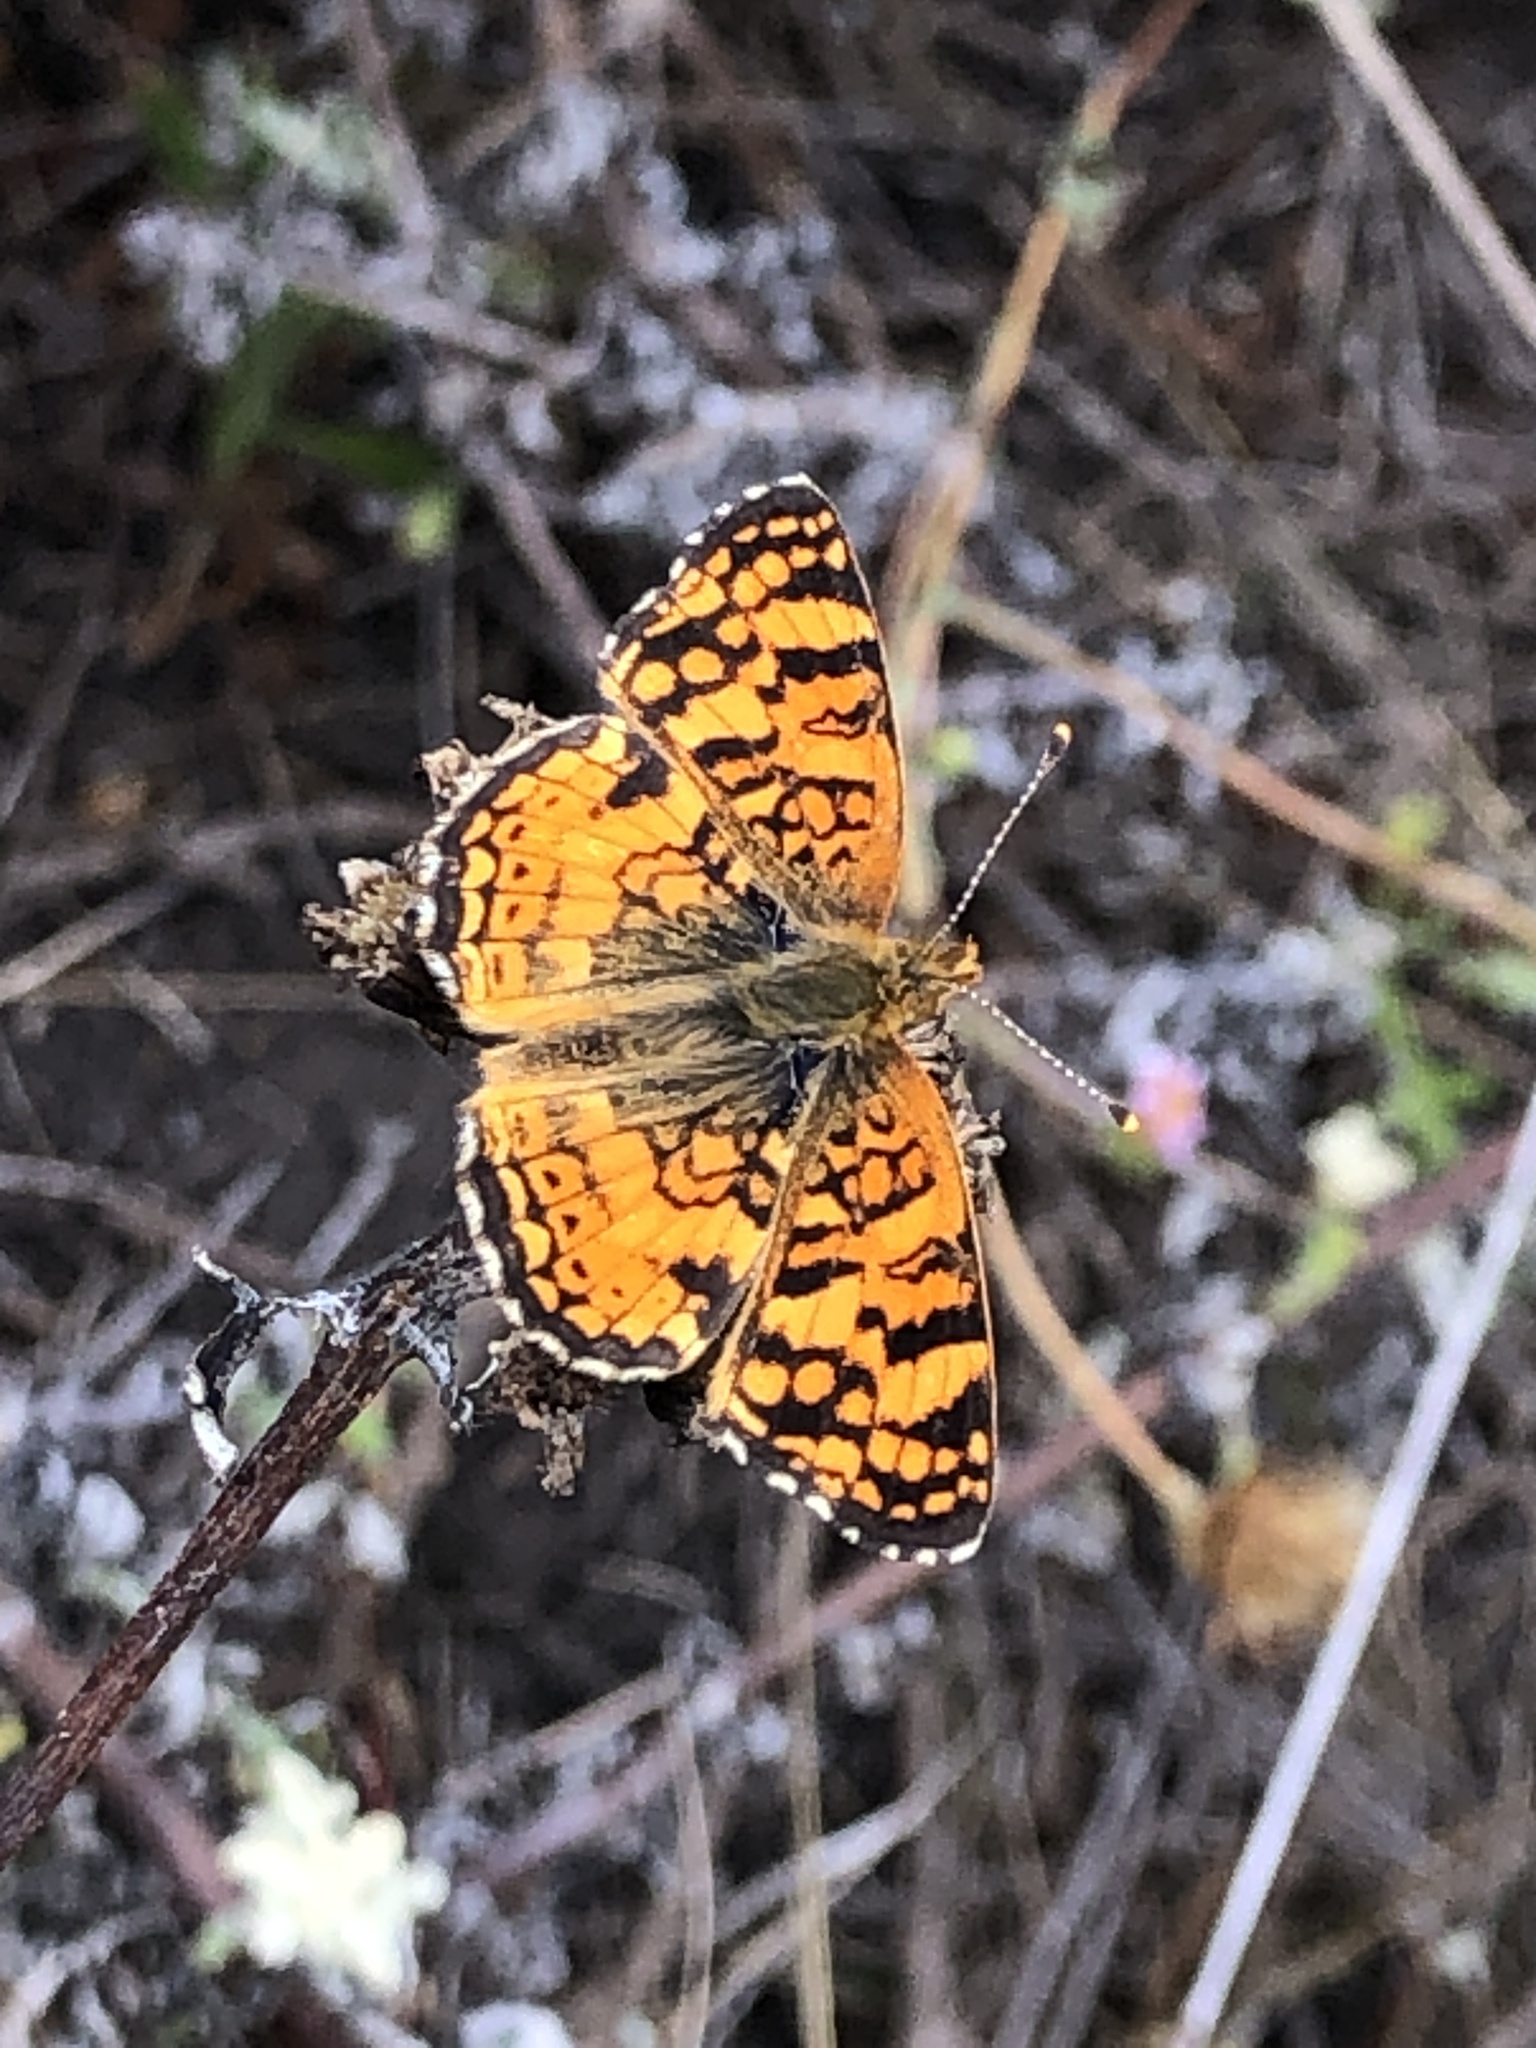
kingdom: Animalia
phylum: Arthropoda
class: Insecta
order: Lepidoptera
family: Nymphalidae
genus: Eresia
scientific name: Eresia aveyrona
